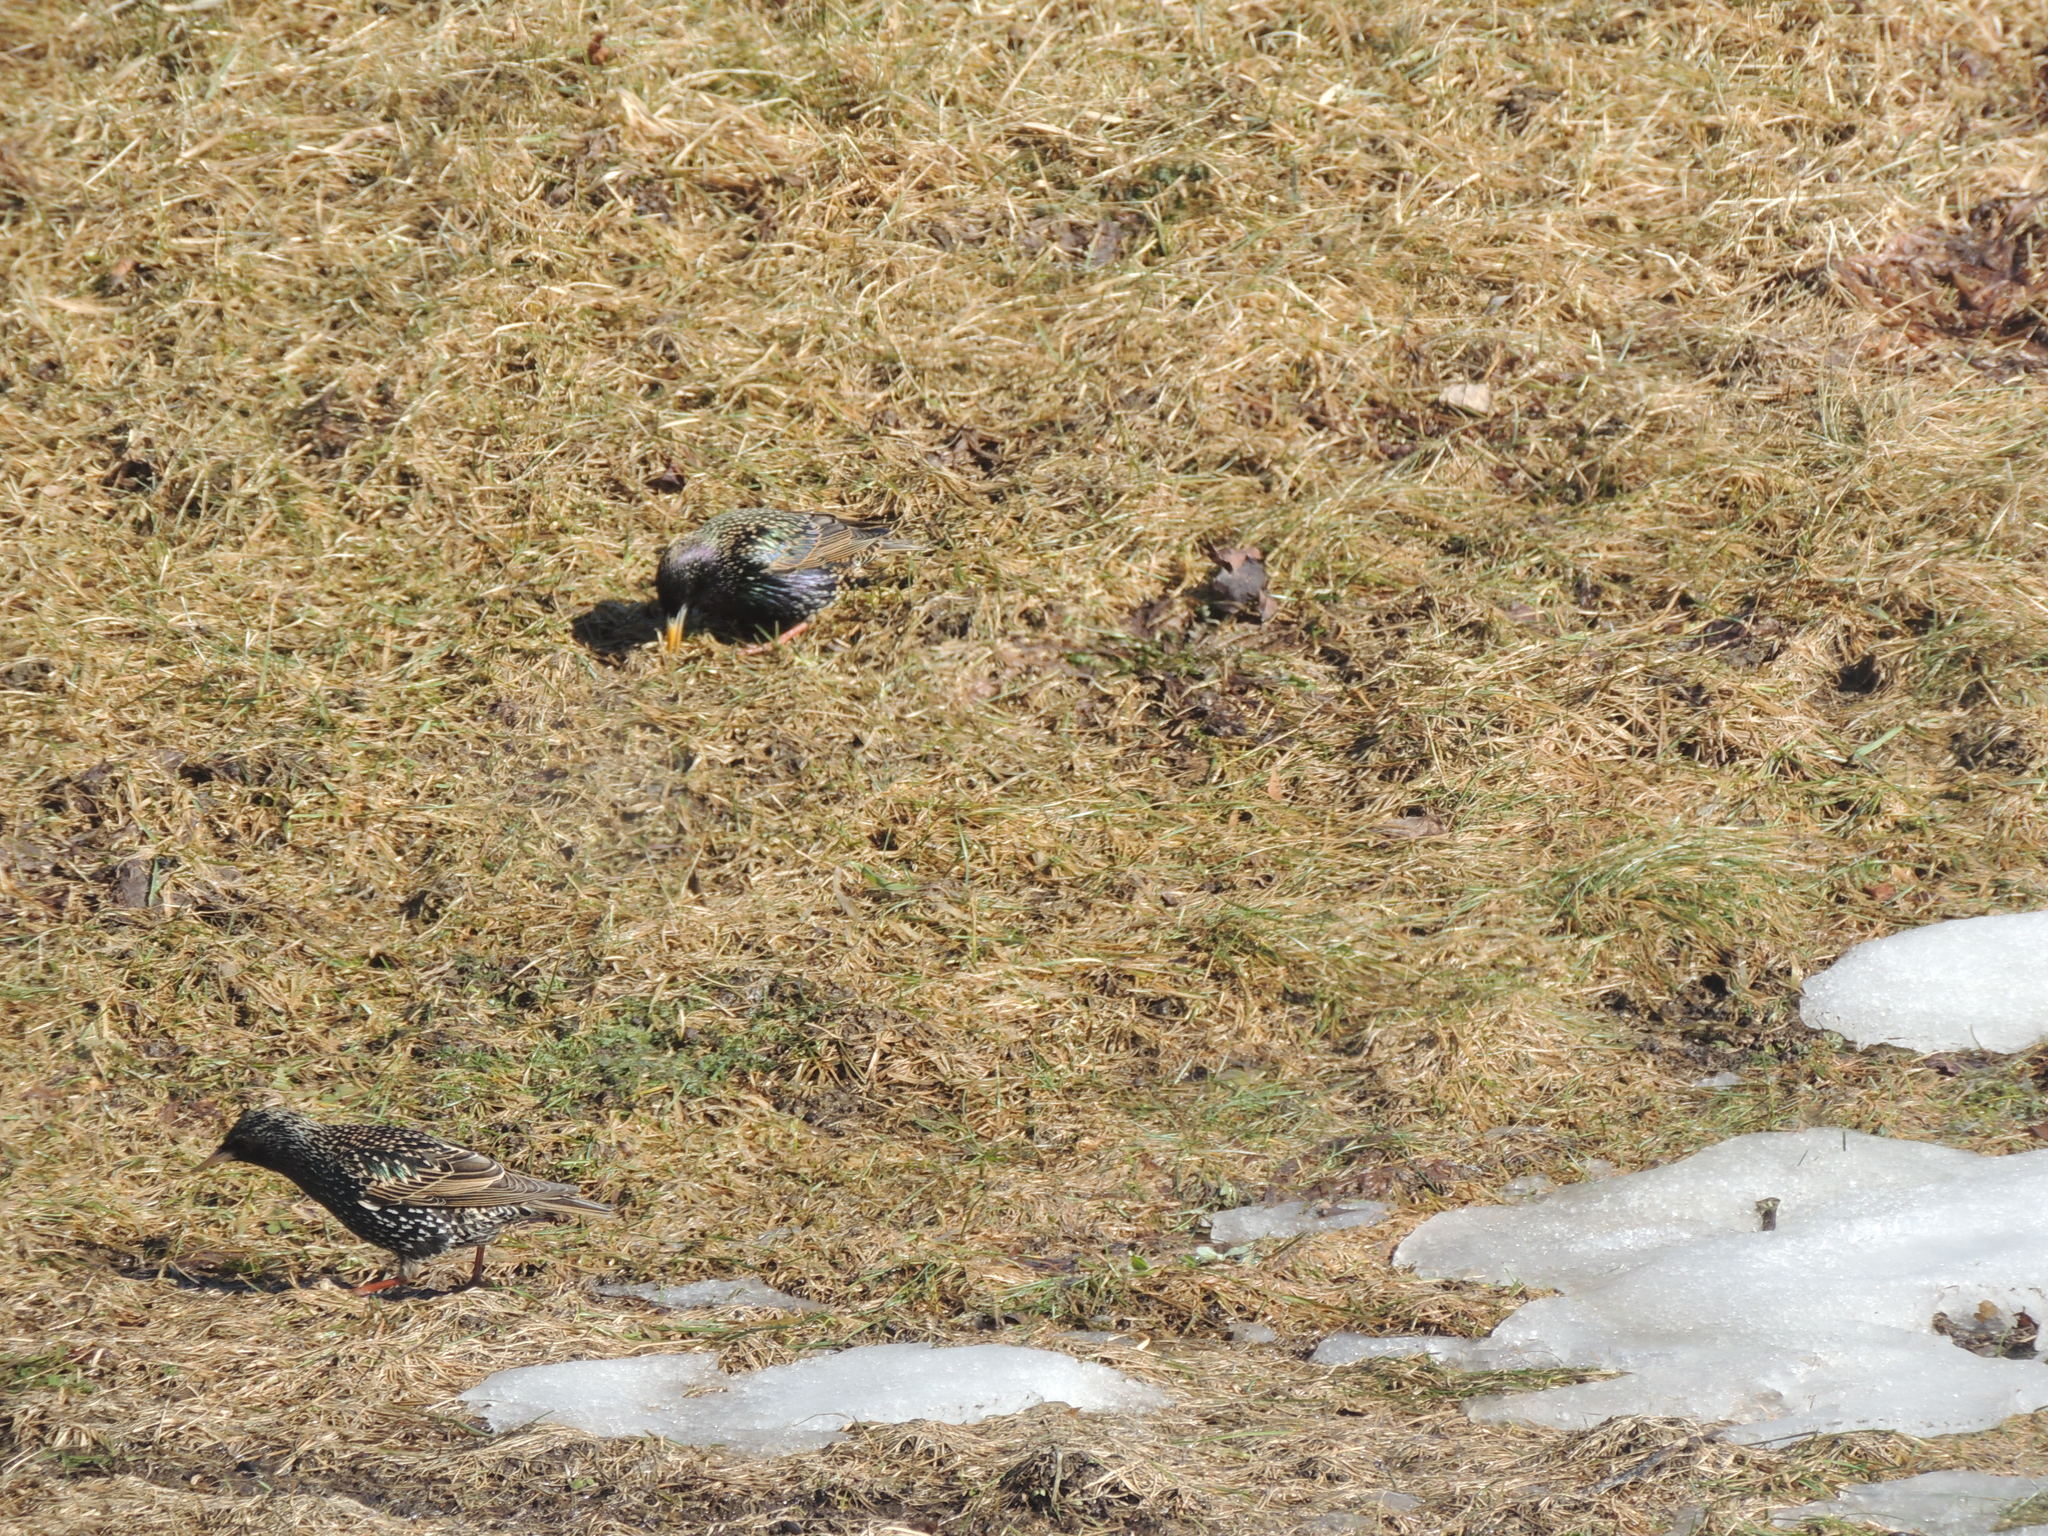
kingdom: Animalia
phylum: Chordata
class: Aves
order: Passeriformes
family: Sturnidae
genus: Sturnus
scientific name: Sturnus vulgaris
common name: Common starling
